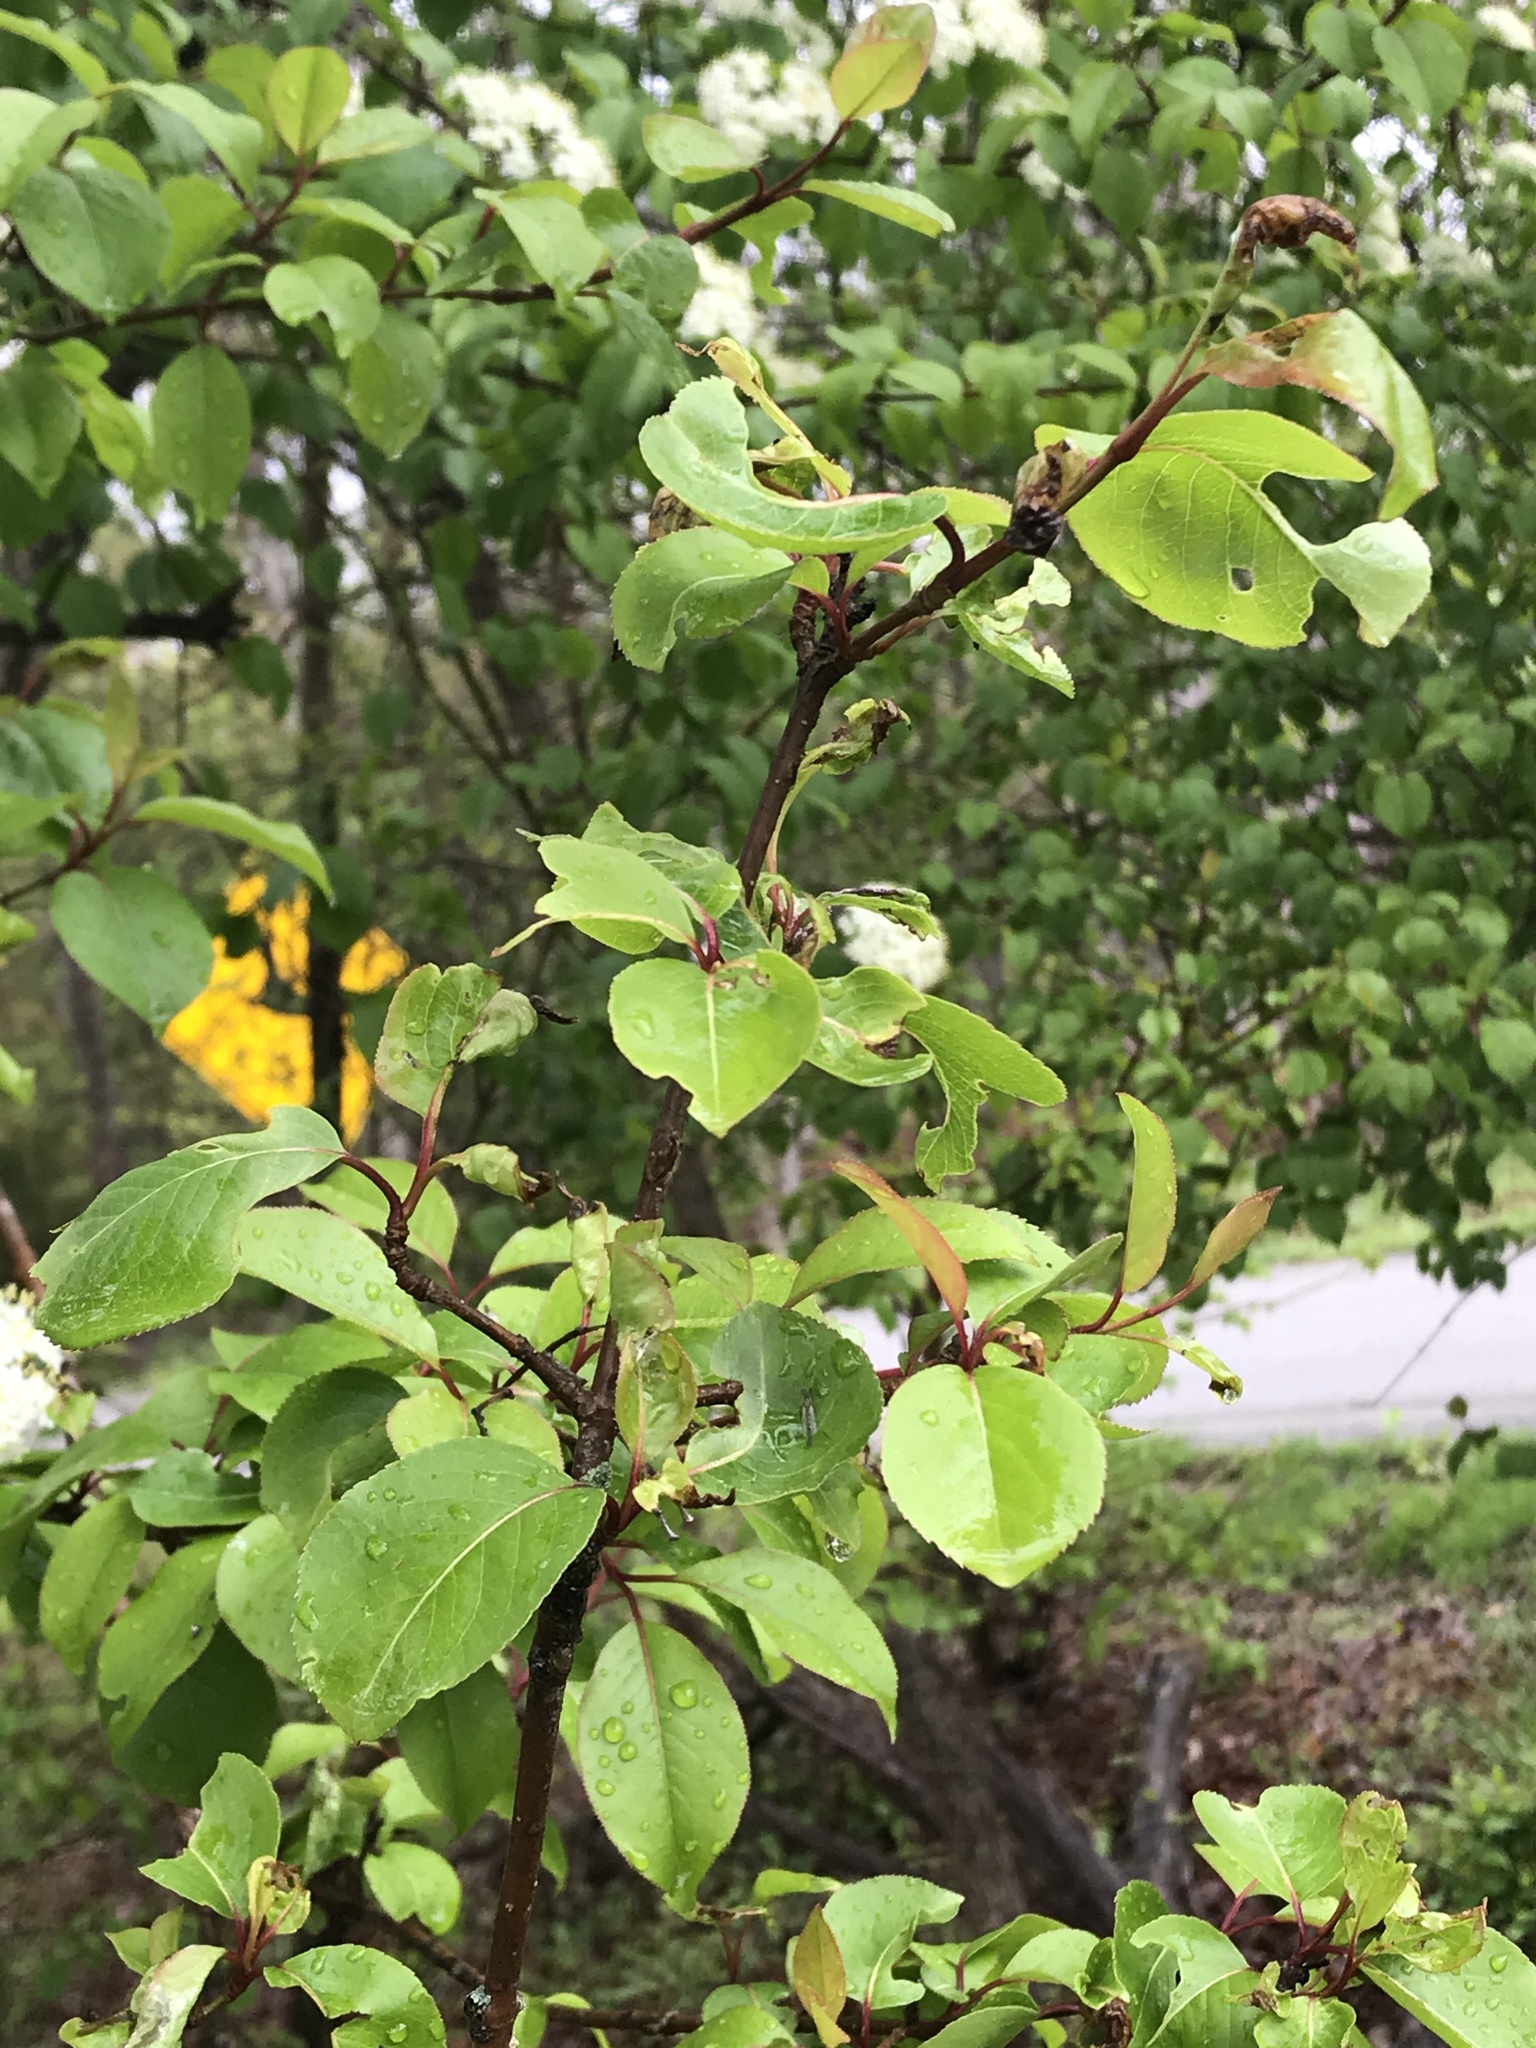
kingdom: Plantae
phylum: Tracheophyta
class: Magnoliopsida
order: Dipsacales
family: Viburnaceae
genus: Viburnum
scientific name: Viburnum prunifolium
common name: Black haw
